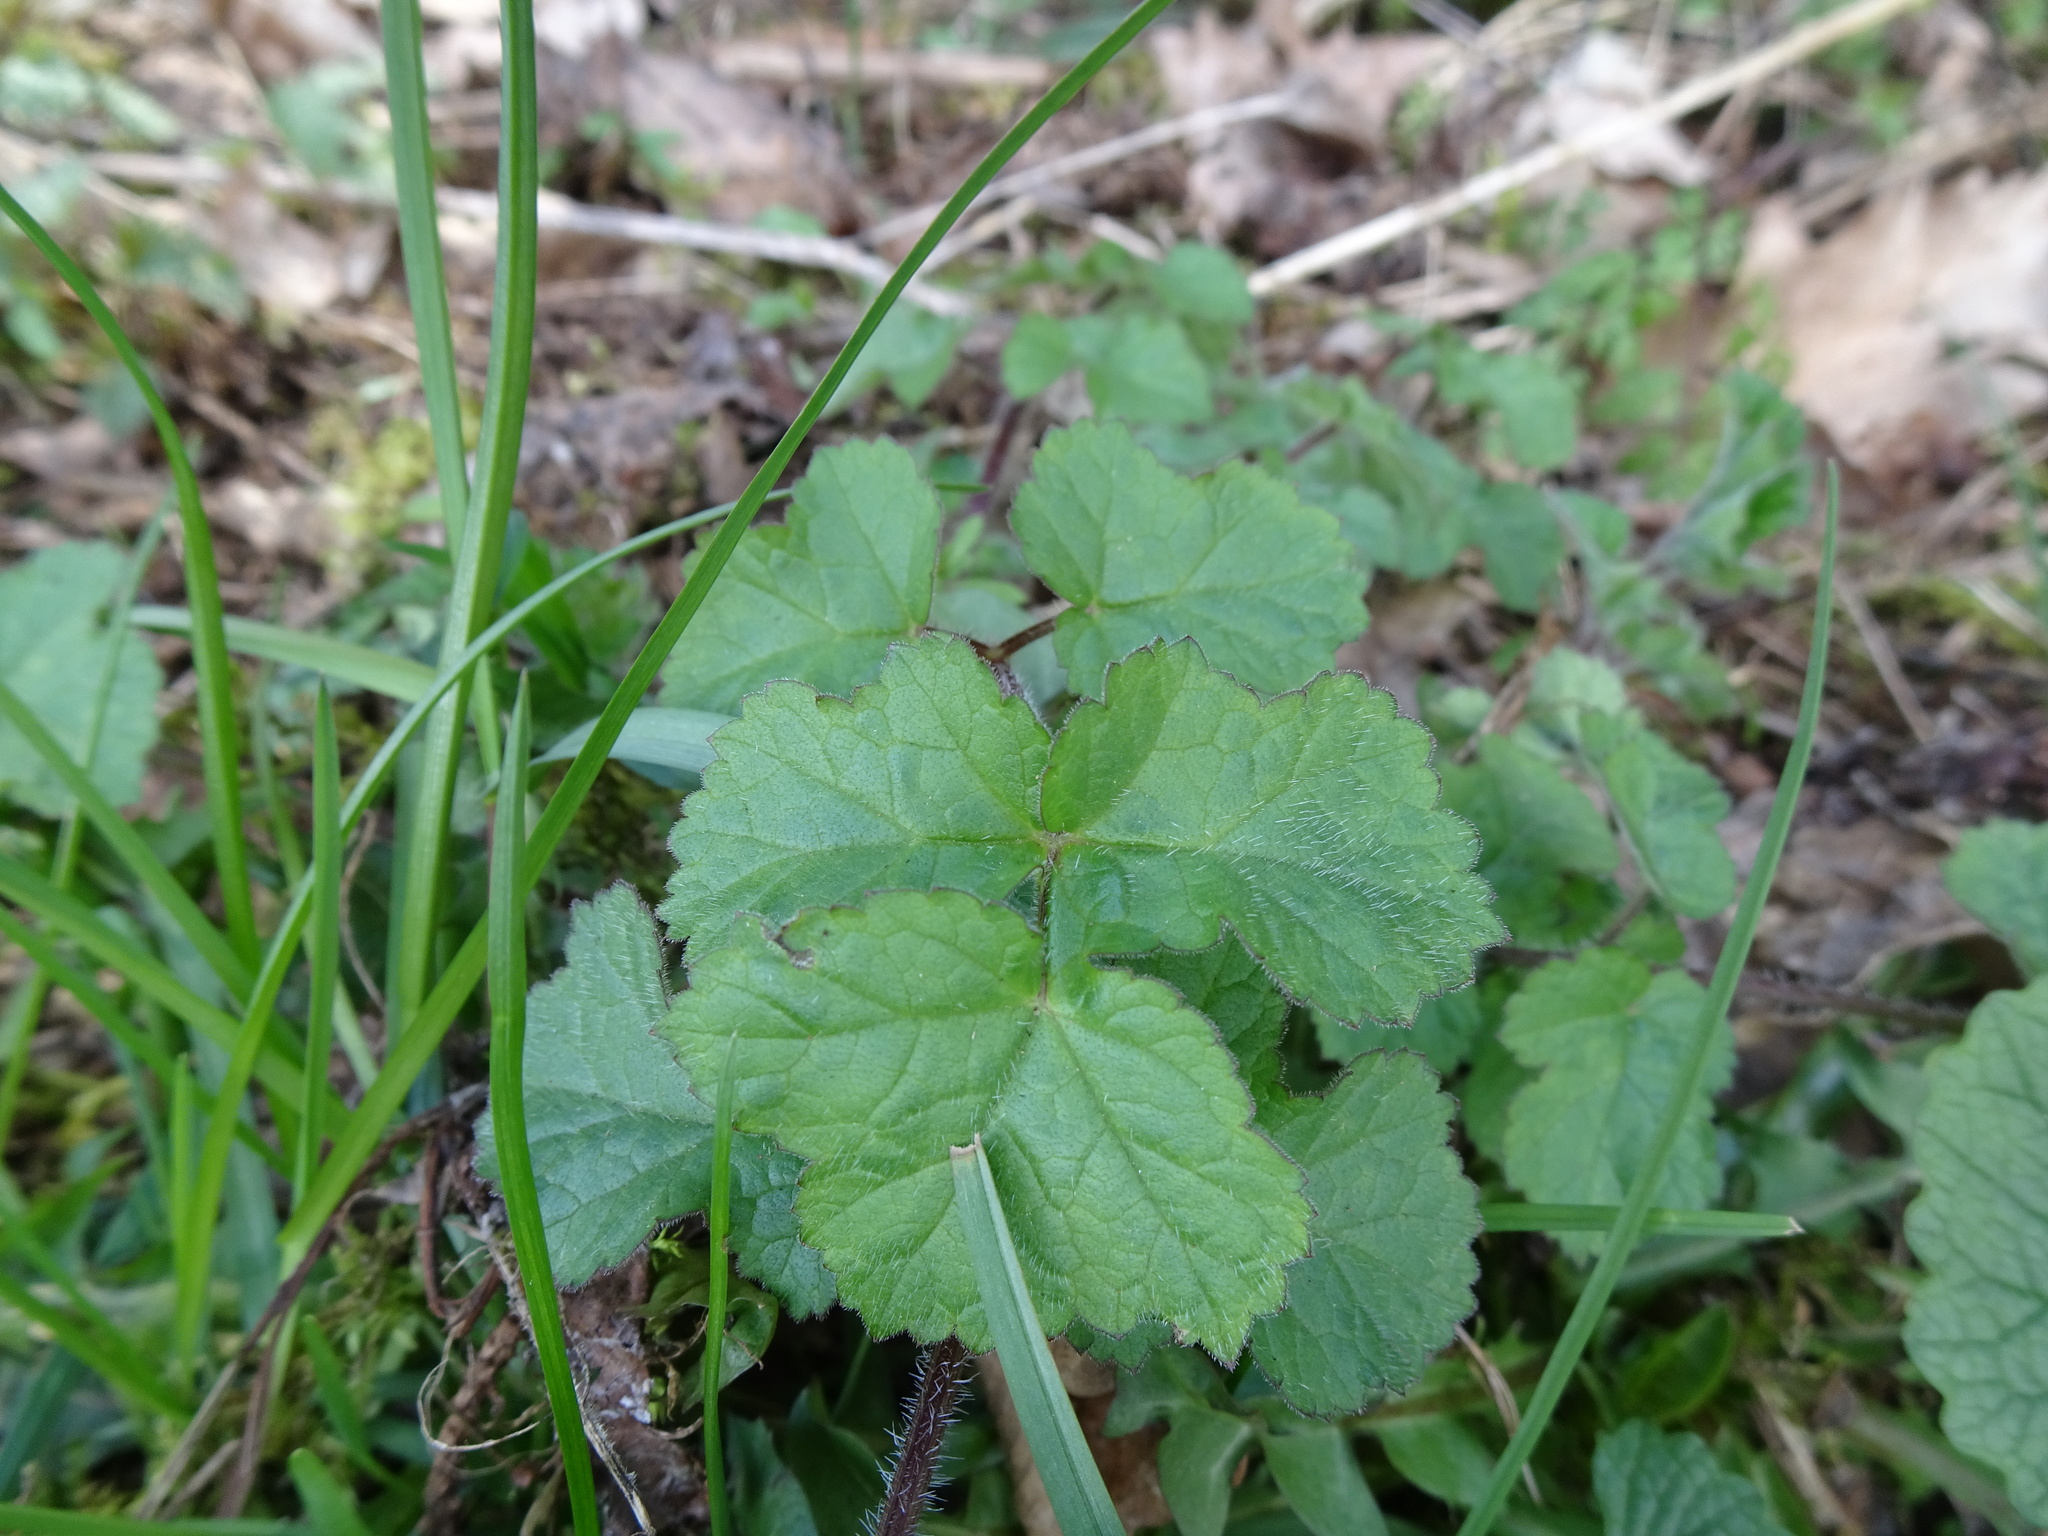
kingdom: Plantae
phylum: Tracheophyta
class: Magnoliopsida
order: Apiales
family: Apiaceae
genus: Heracleum
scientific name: Heracleum sphondylium
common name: Hogweed
